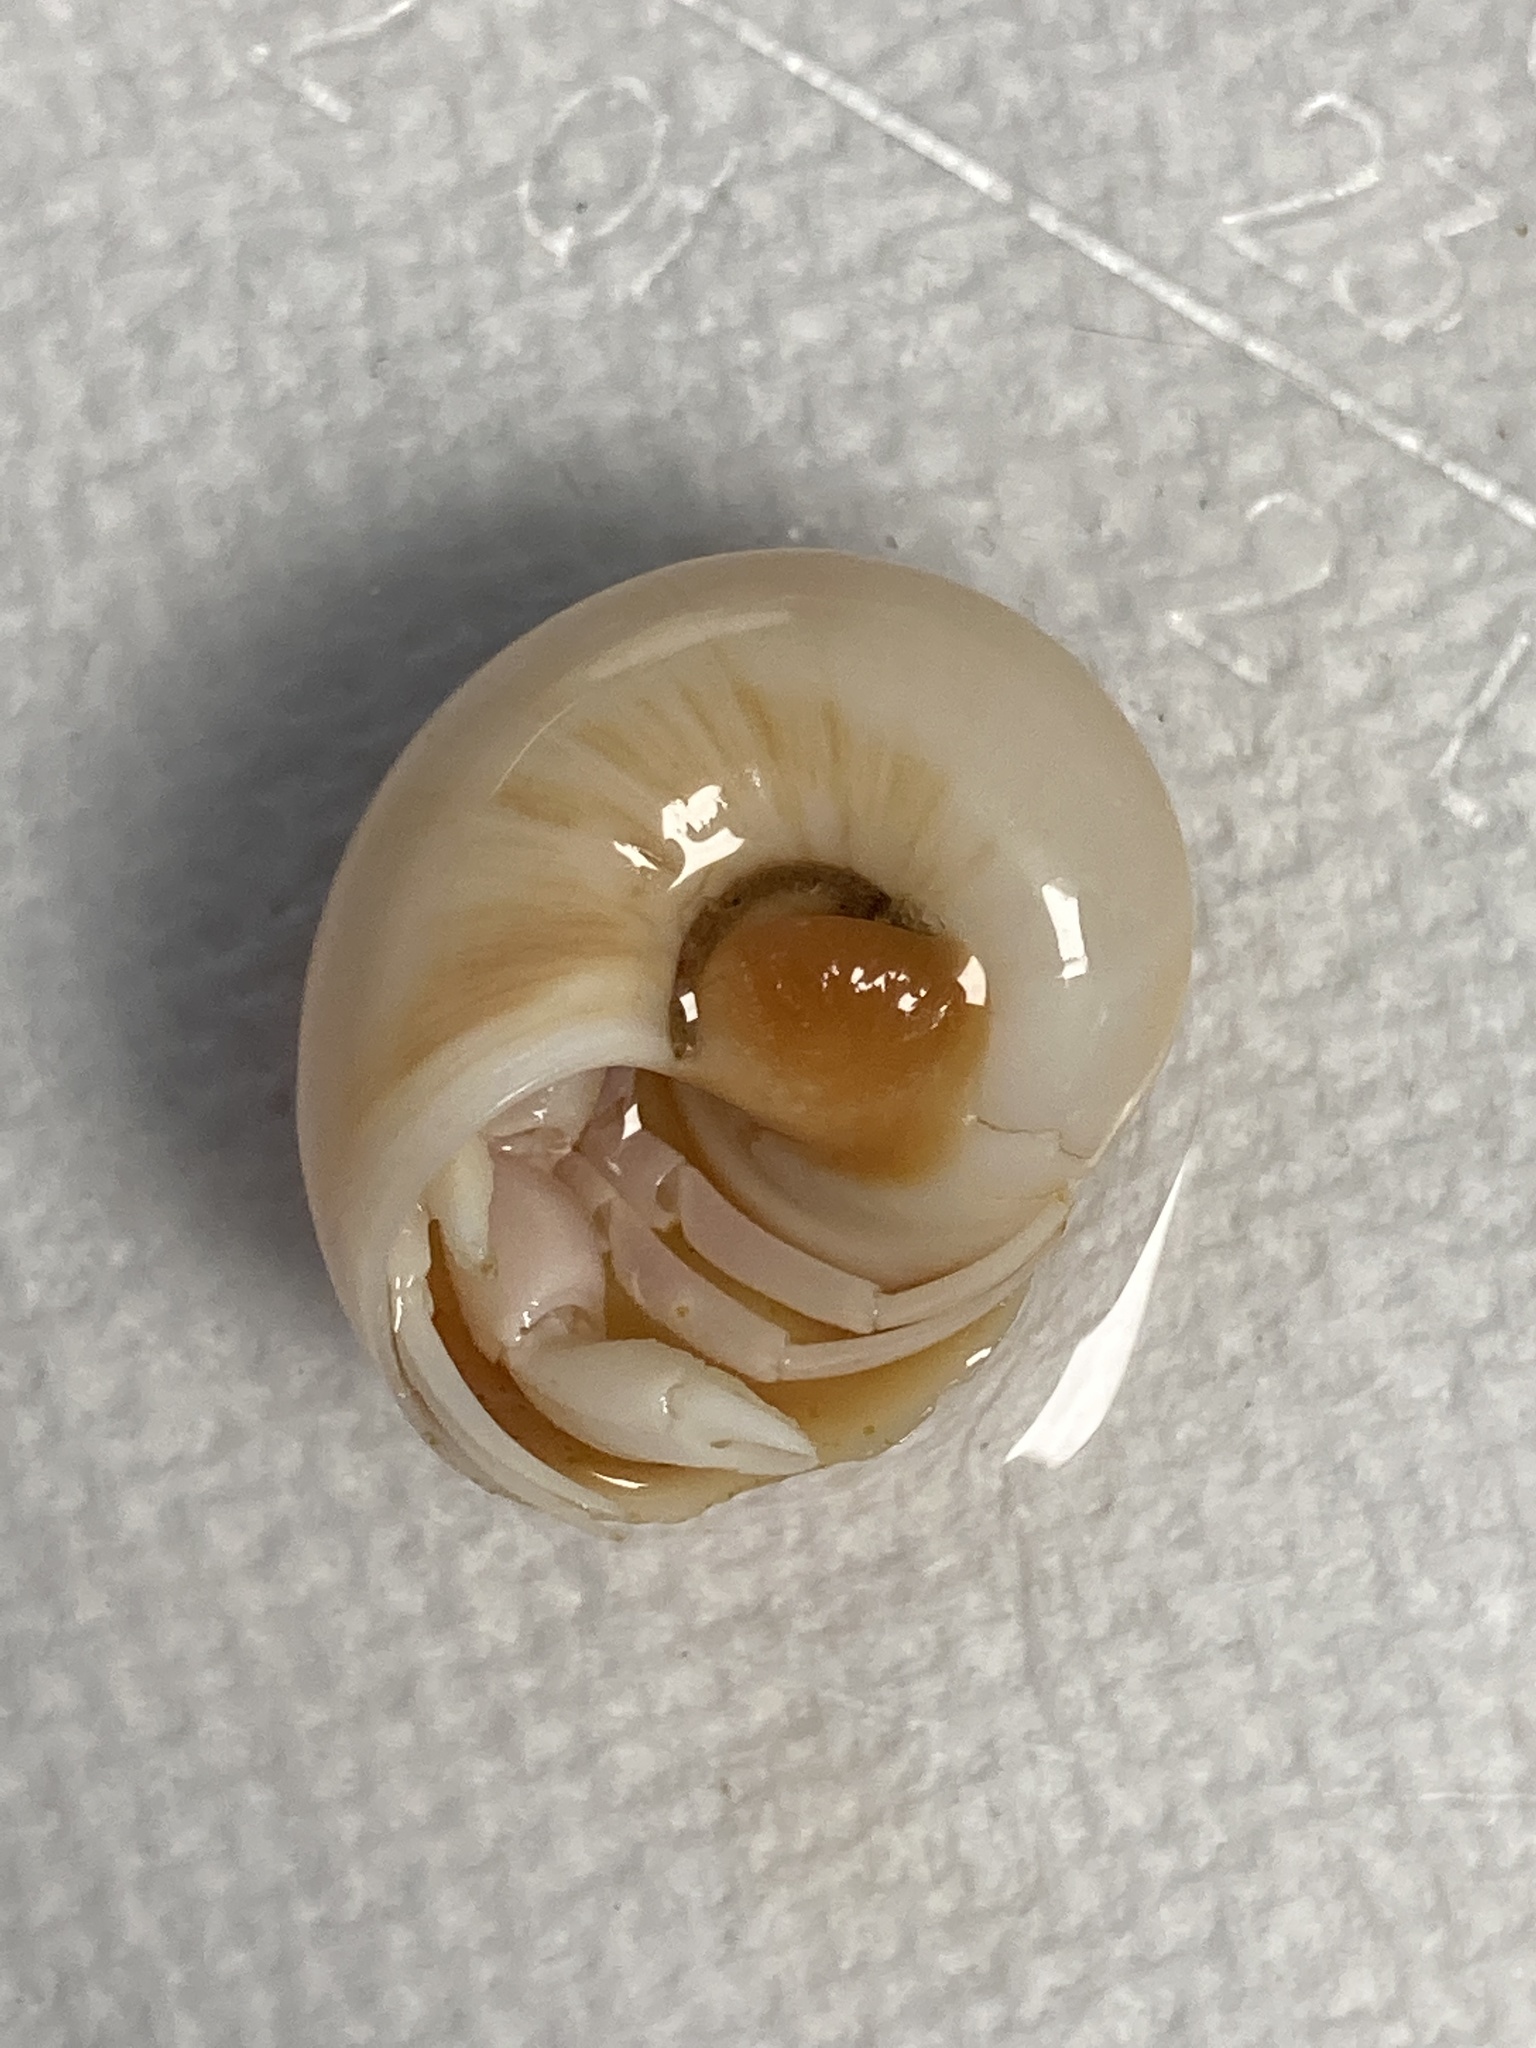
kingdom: Animalia
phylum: Mollusca
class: Gastropoda
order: Littorinimorpha
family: Naticidae
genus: Neverita
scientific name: Neverita duplicata
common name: Lobed moonsnail
